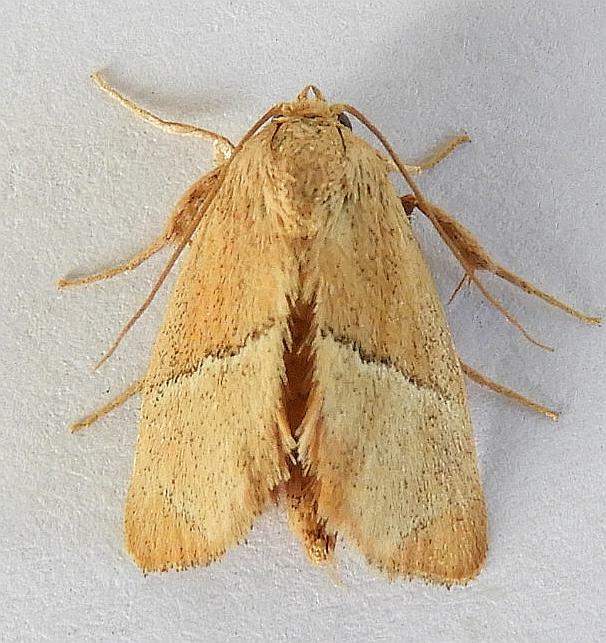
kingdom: Animalia
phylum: Arthropoda
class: Insecta
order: Lepidoptera
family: Limacodidae
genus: Apoda
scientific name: Apoda rectilinea
